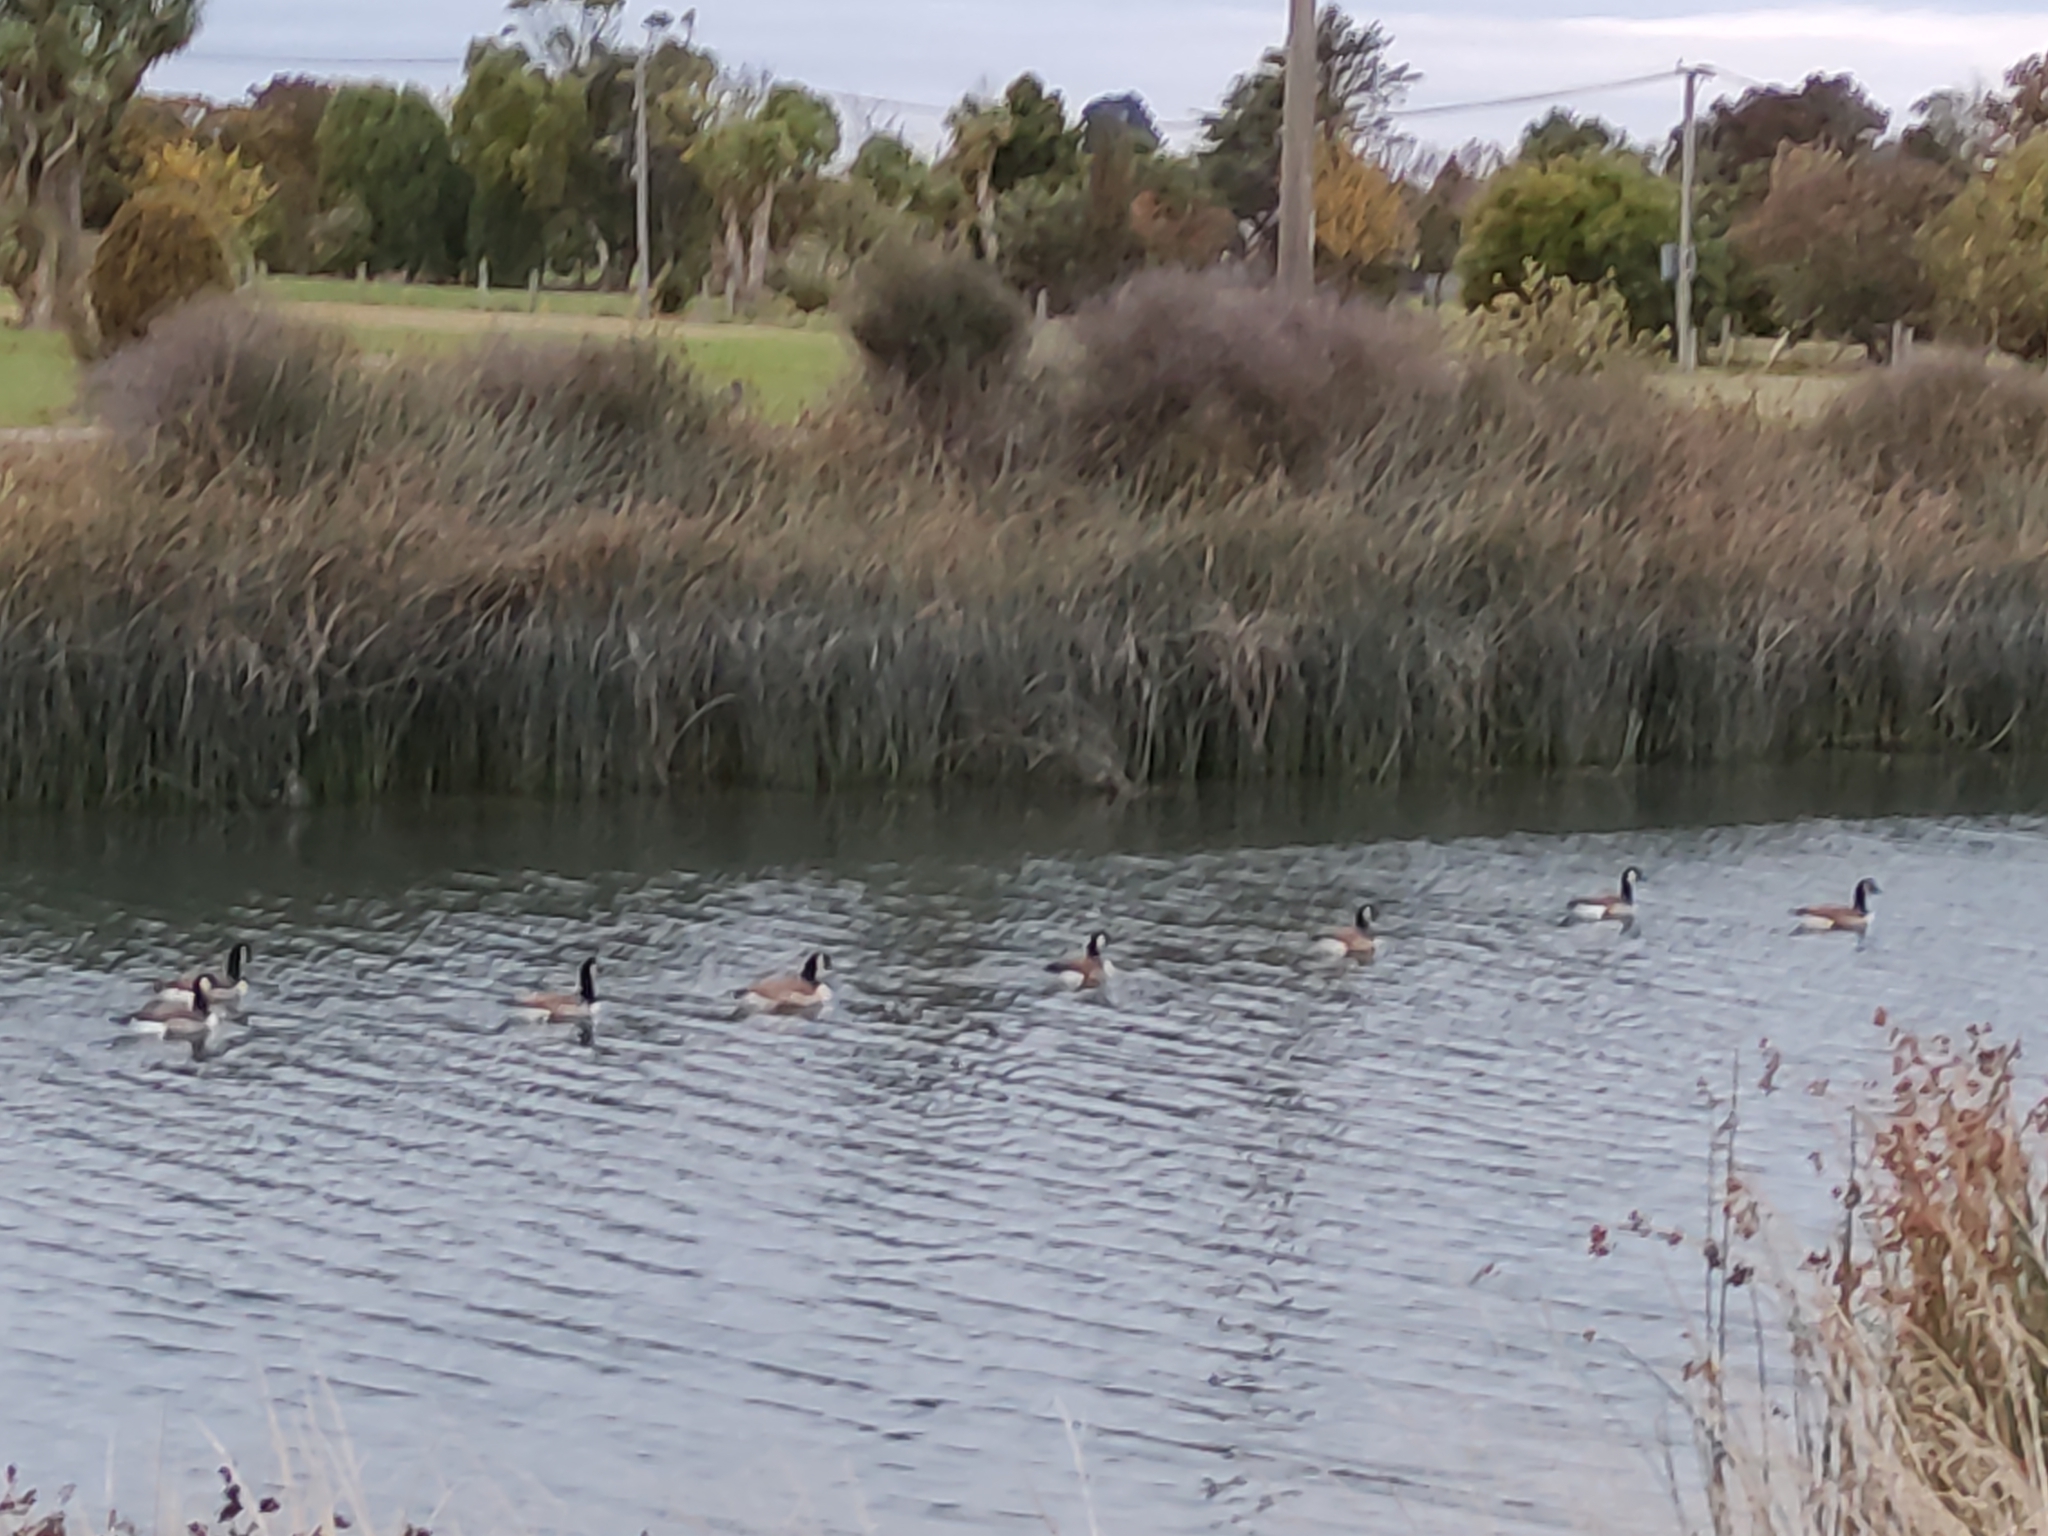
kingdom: Animalia
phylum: Chordata
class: Aves
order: Anseriformes
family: Anatidae
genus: Branta
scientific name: Branta canadensis
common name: Canada goose
